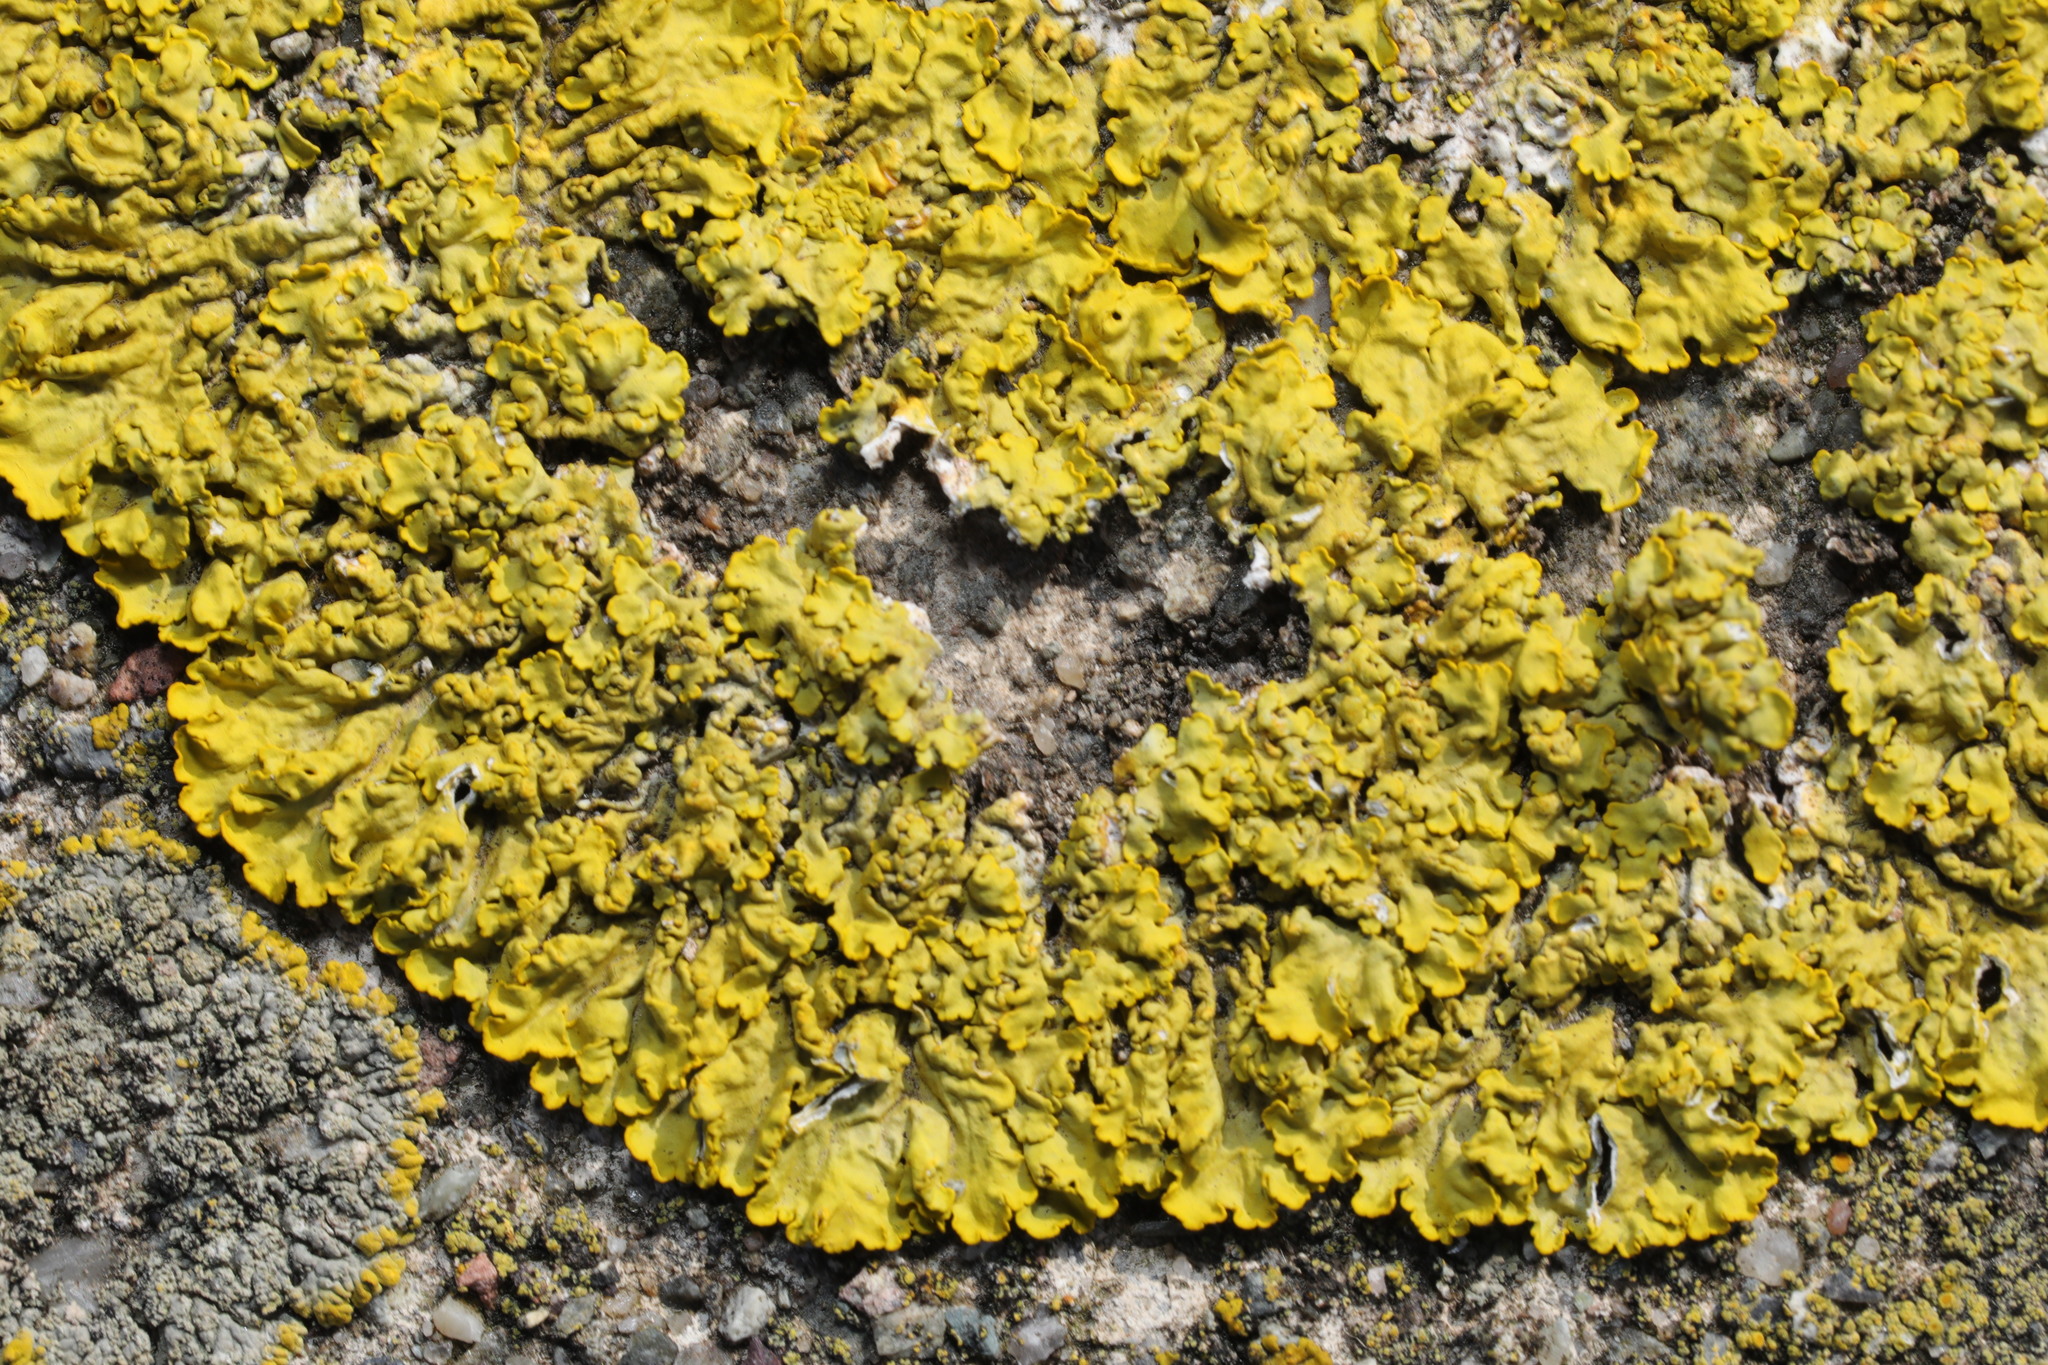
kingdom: Fungi
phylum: Ascomycota
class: Lecanoromycetes
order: Teloschistales
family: Teloschistaceae
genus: Xanthoria
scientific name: Xanthoria parietina
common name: Common orange lichen
